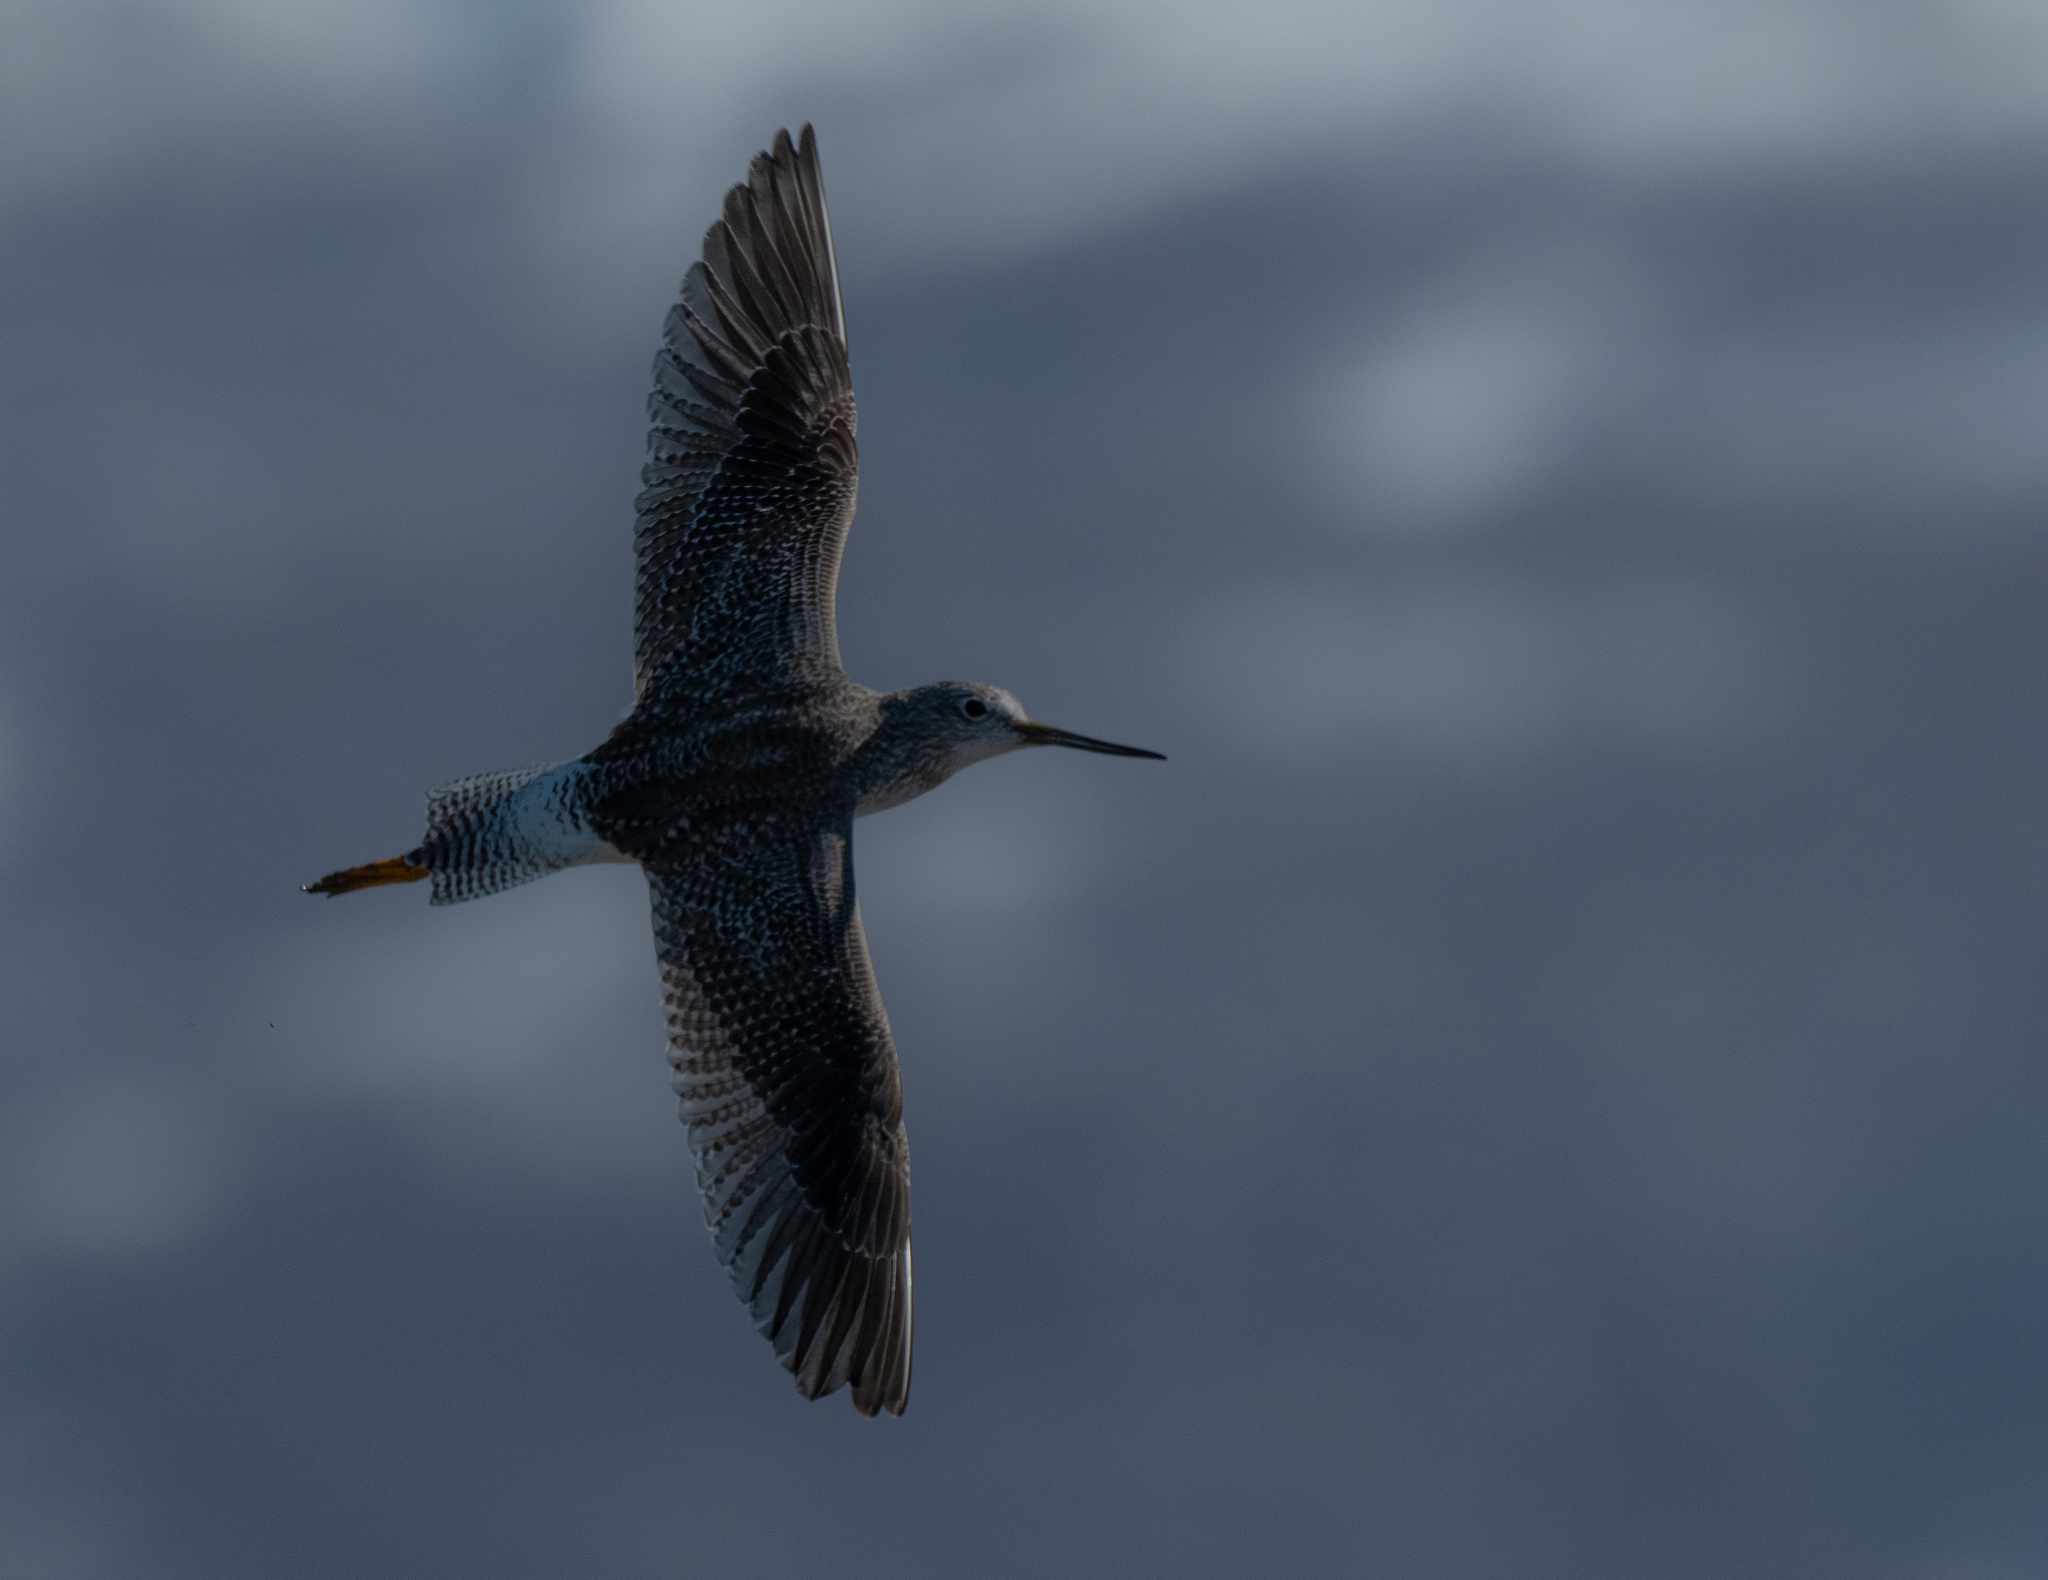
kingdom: Animalia
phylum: Chordata
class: Aves
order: Charadriiformes
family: Scolopacidae
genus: Tringa
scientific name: Tringa melanoleuca
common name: Greater yellowlegs
